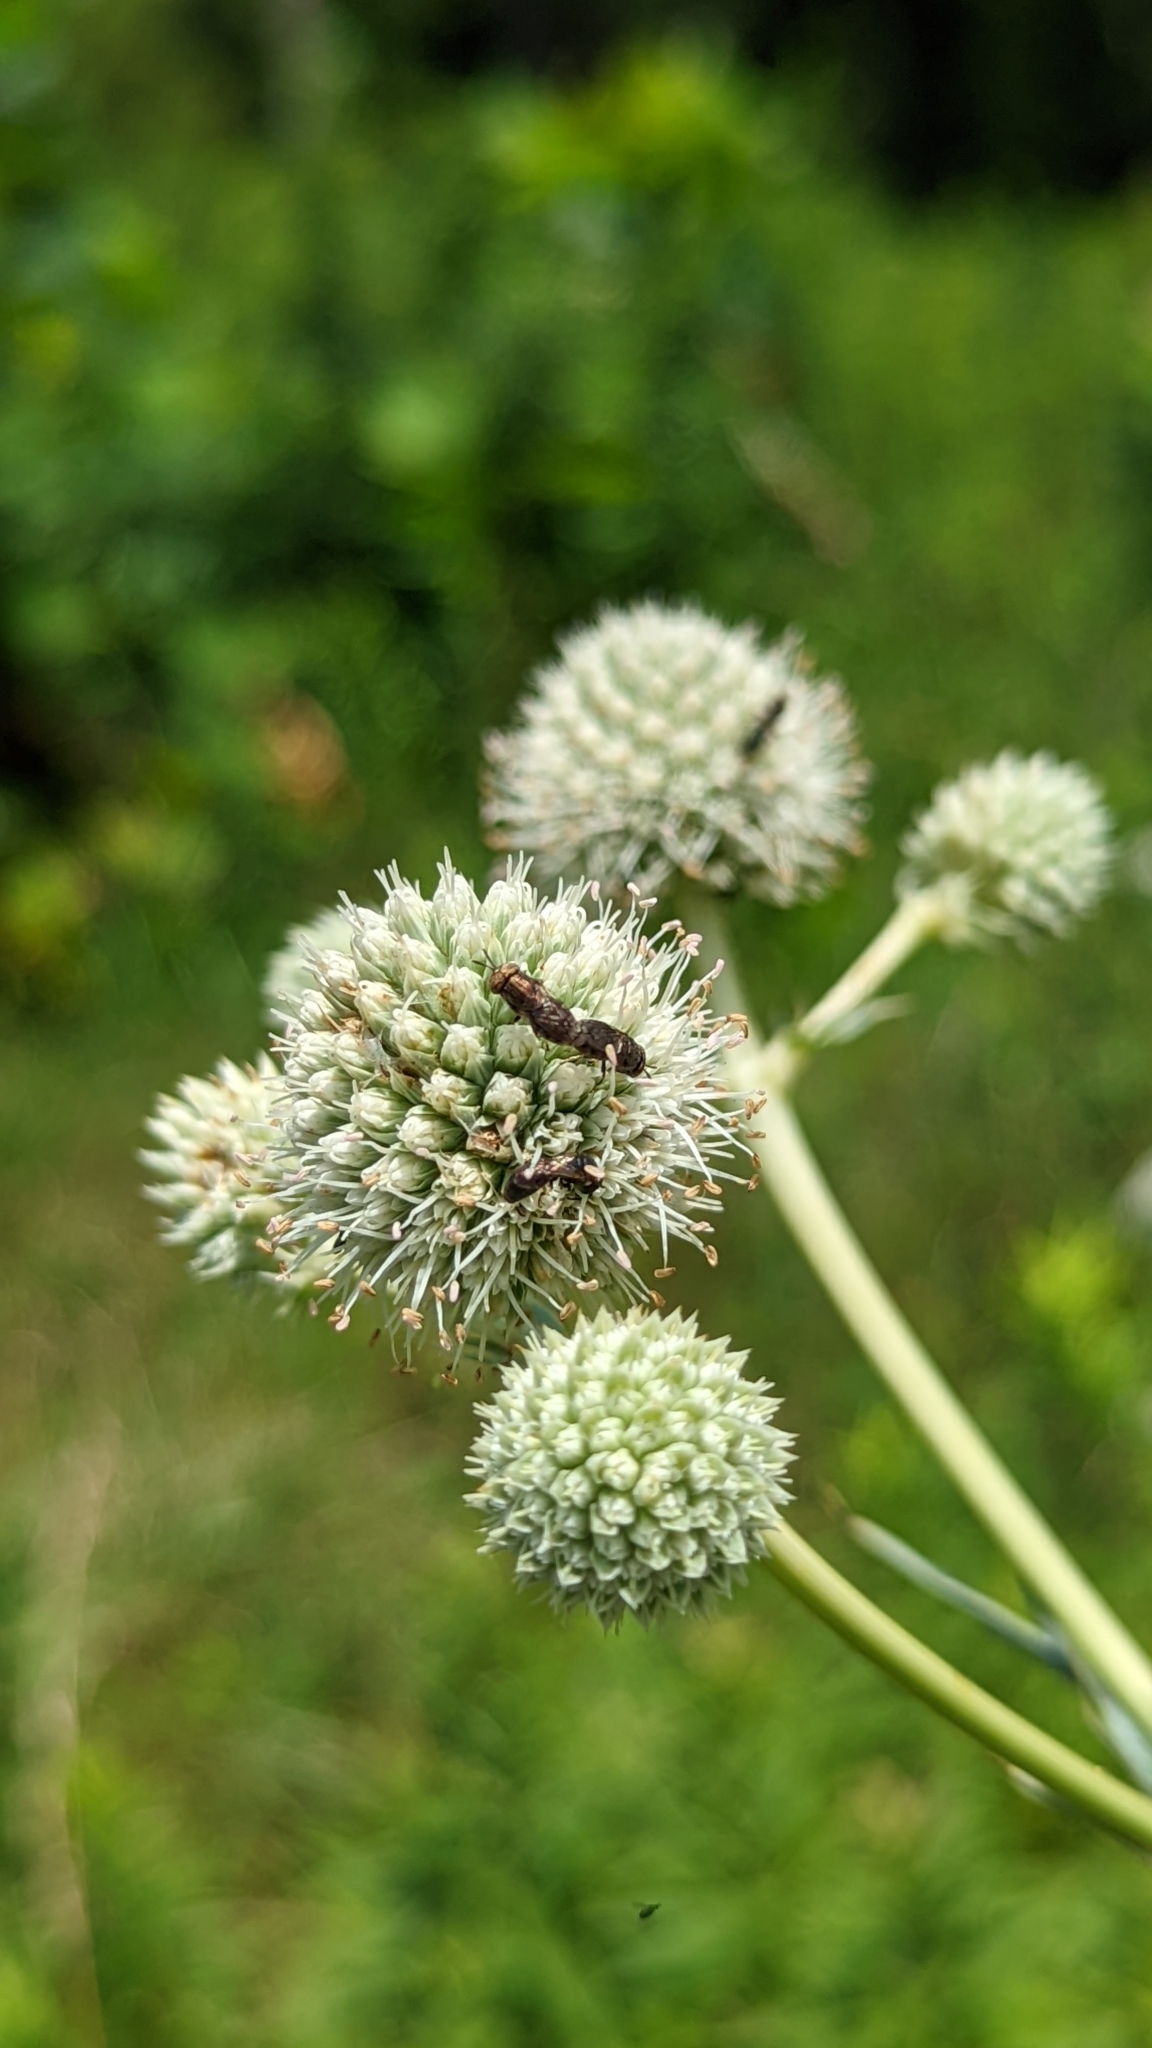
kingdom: Animalia
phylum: Arthropoda
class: Insecta
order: Diptera
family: Syrphidae
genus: Orthonevra
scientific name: Orthonevra nitida
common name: Wavy mucksucker
